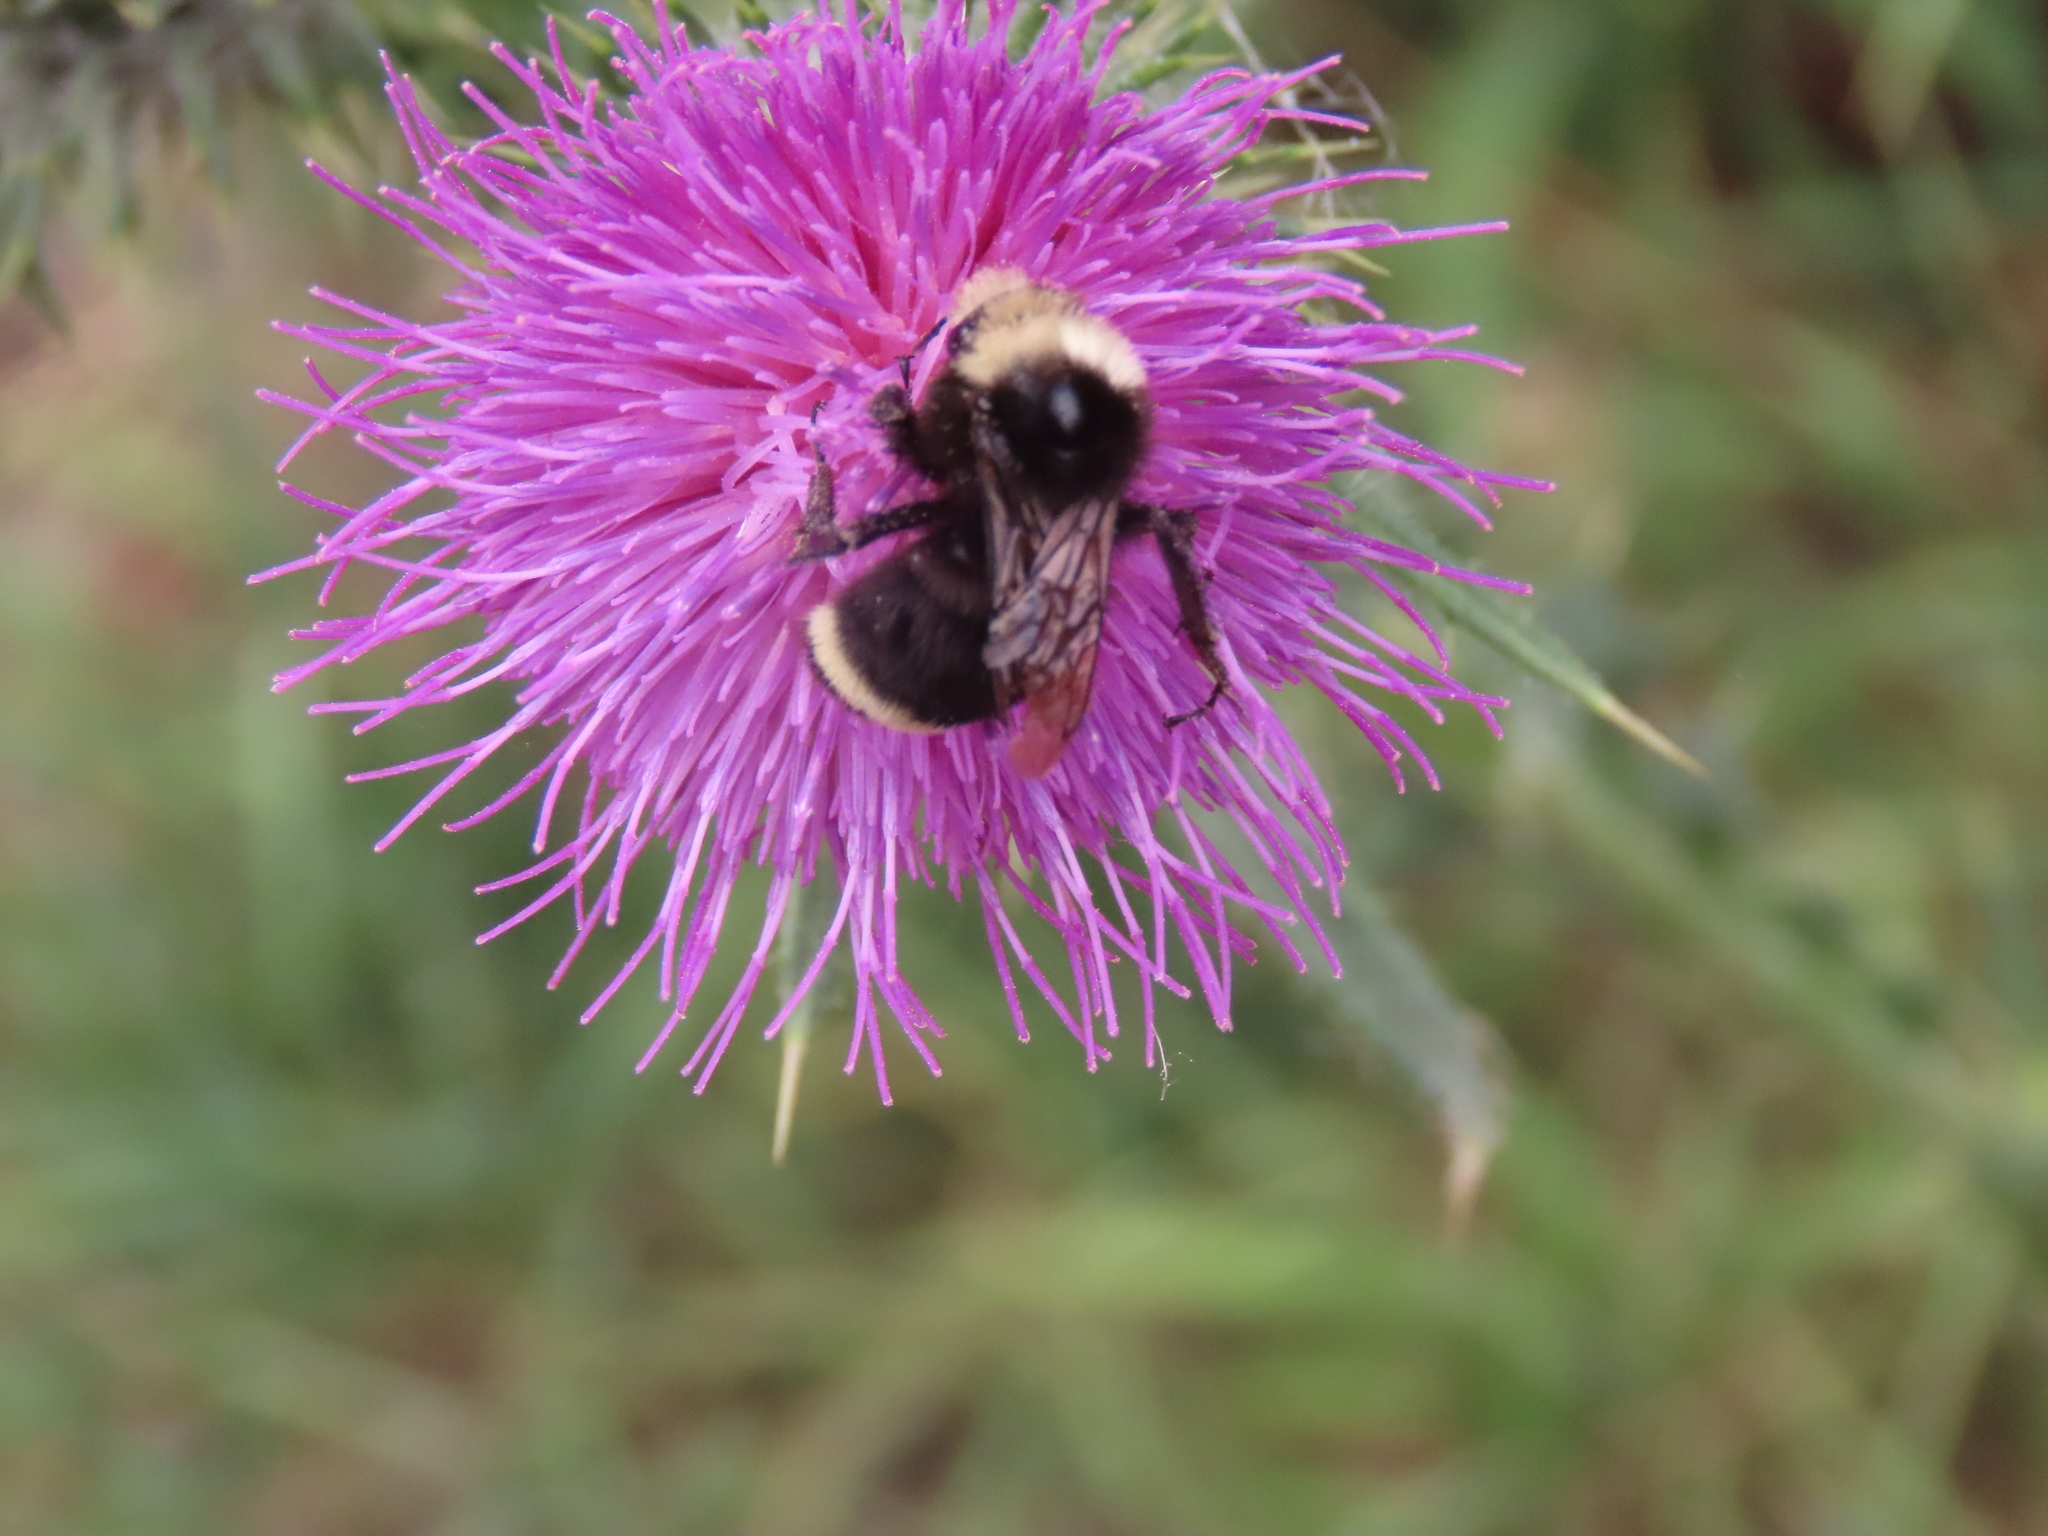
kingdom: Animalia
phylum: Arthropoda
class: Insecta
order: Hymenoptera
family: Apidae
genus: Bombus
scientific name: Bombus vosnesenskii
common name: Vosnesensky bumble bee
